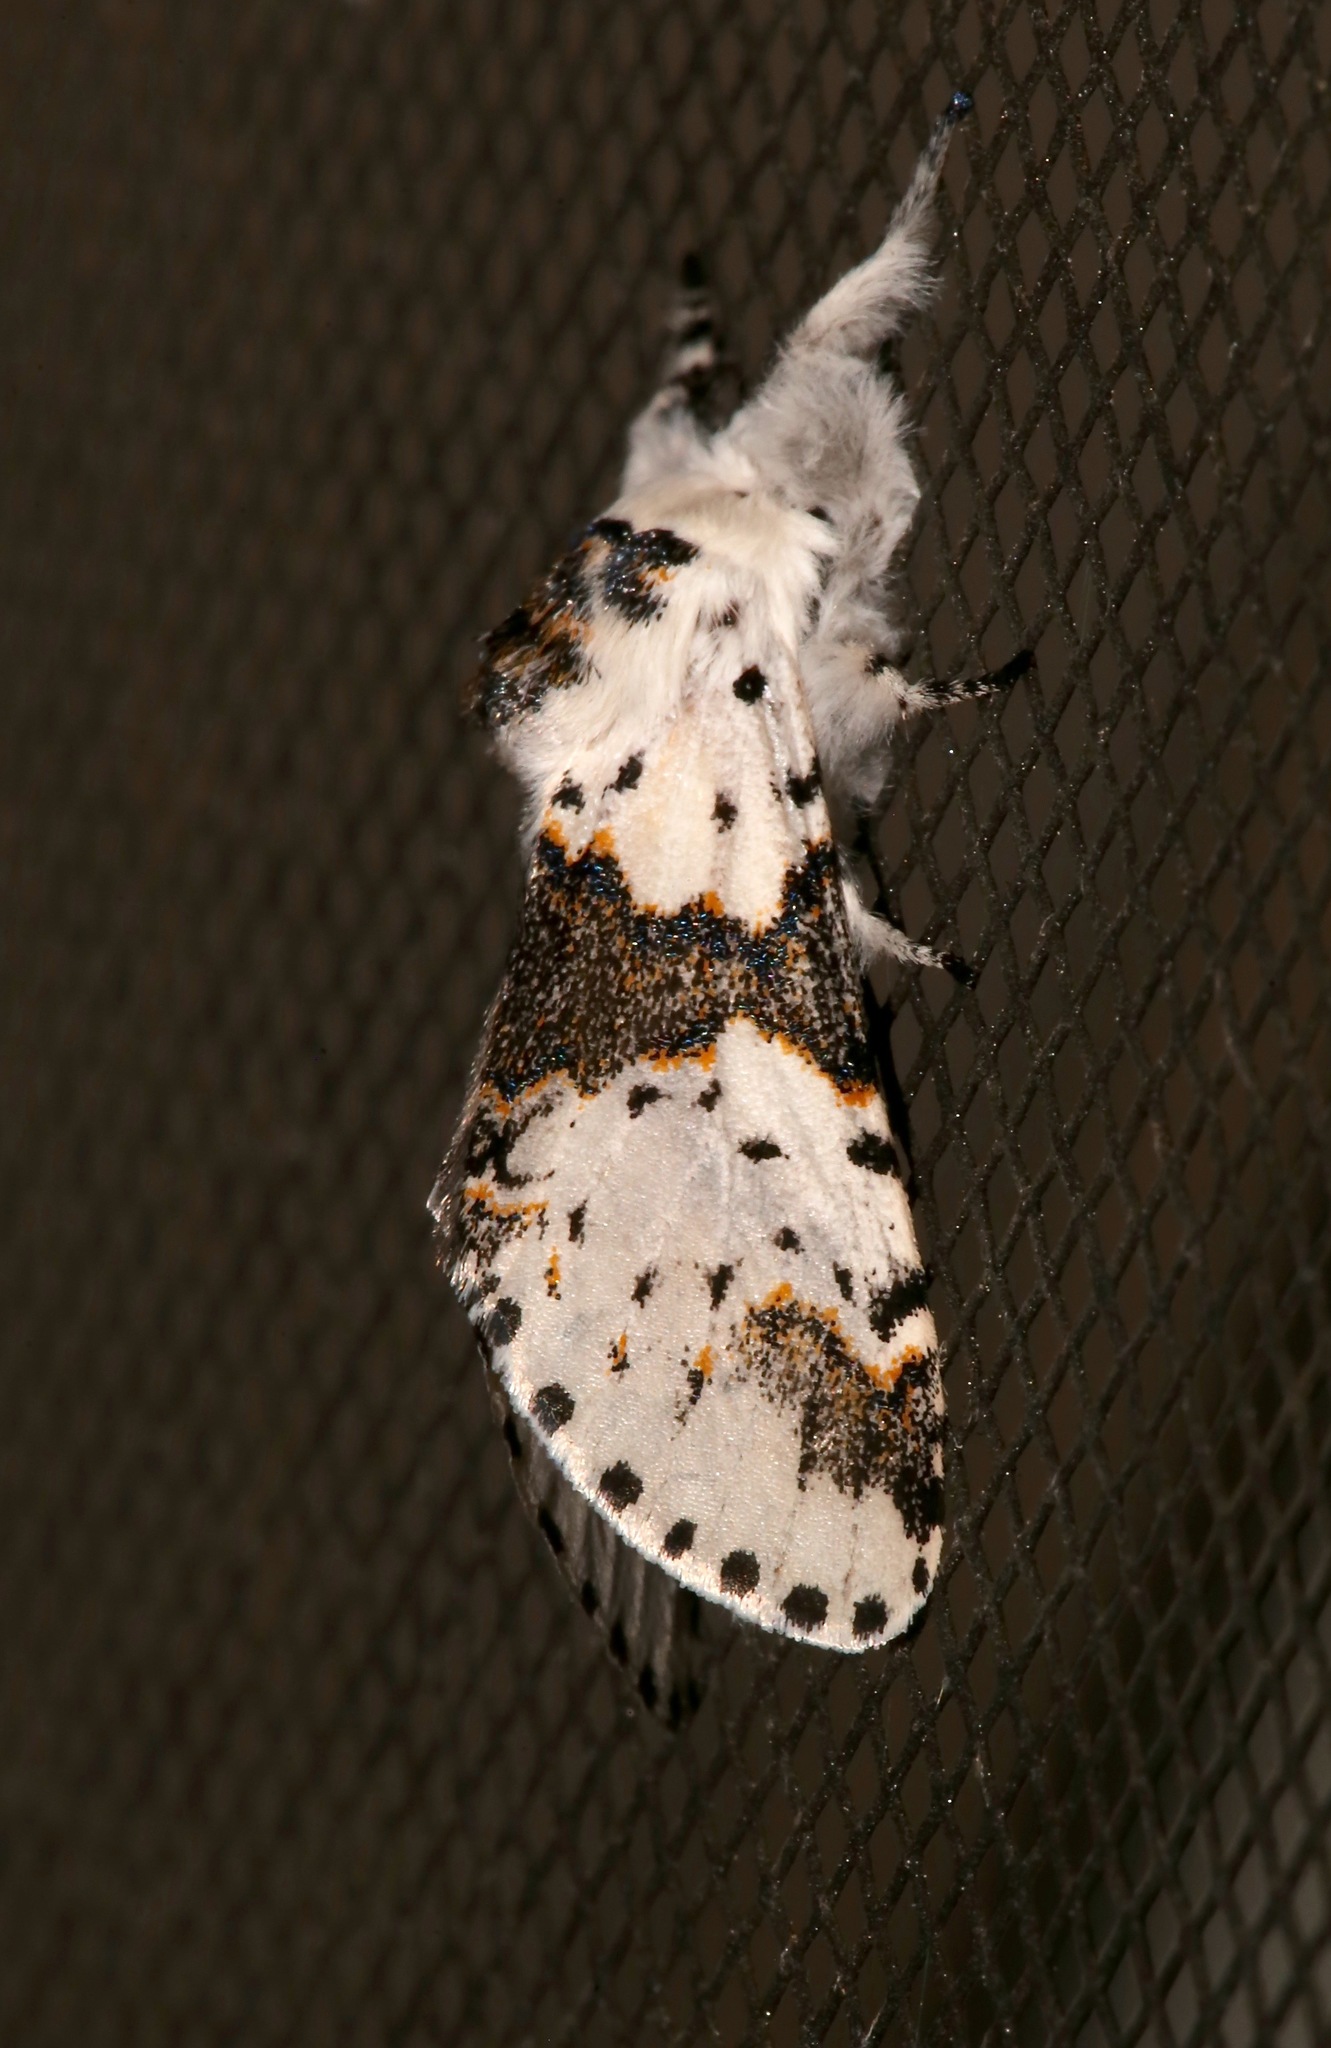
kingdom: Animalia
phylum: Arthropoda
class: Insecta
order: Lepidoptera
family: Notodontidae
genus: Furcula
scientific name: Furcula borealis
